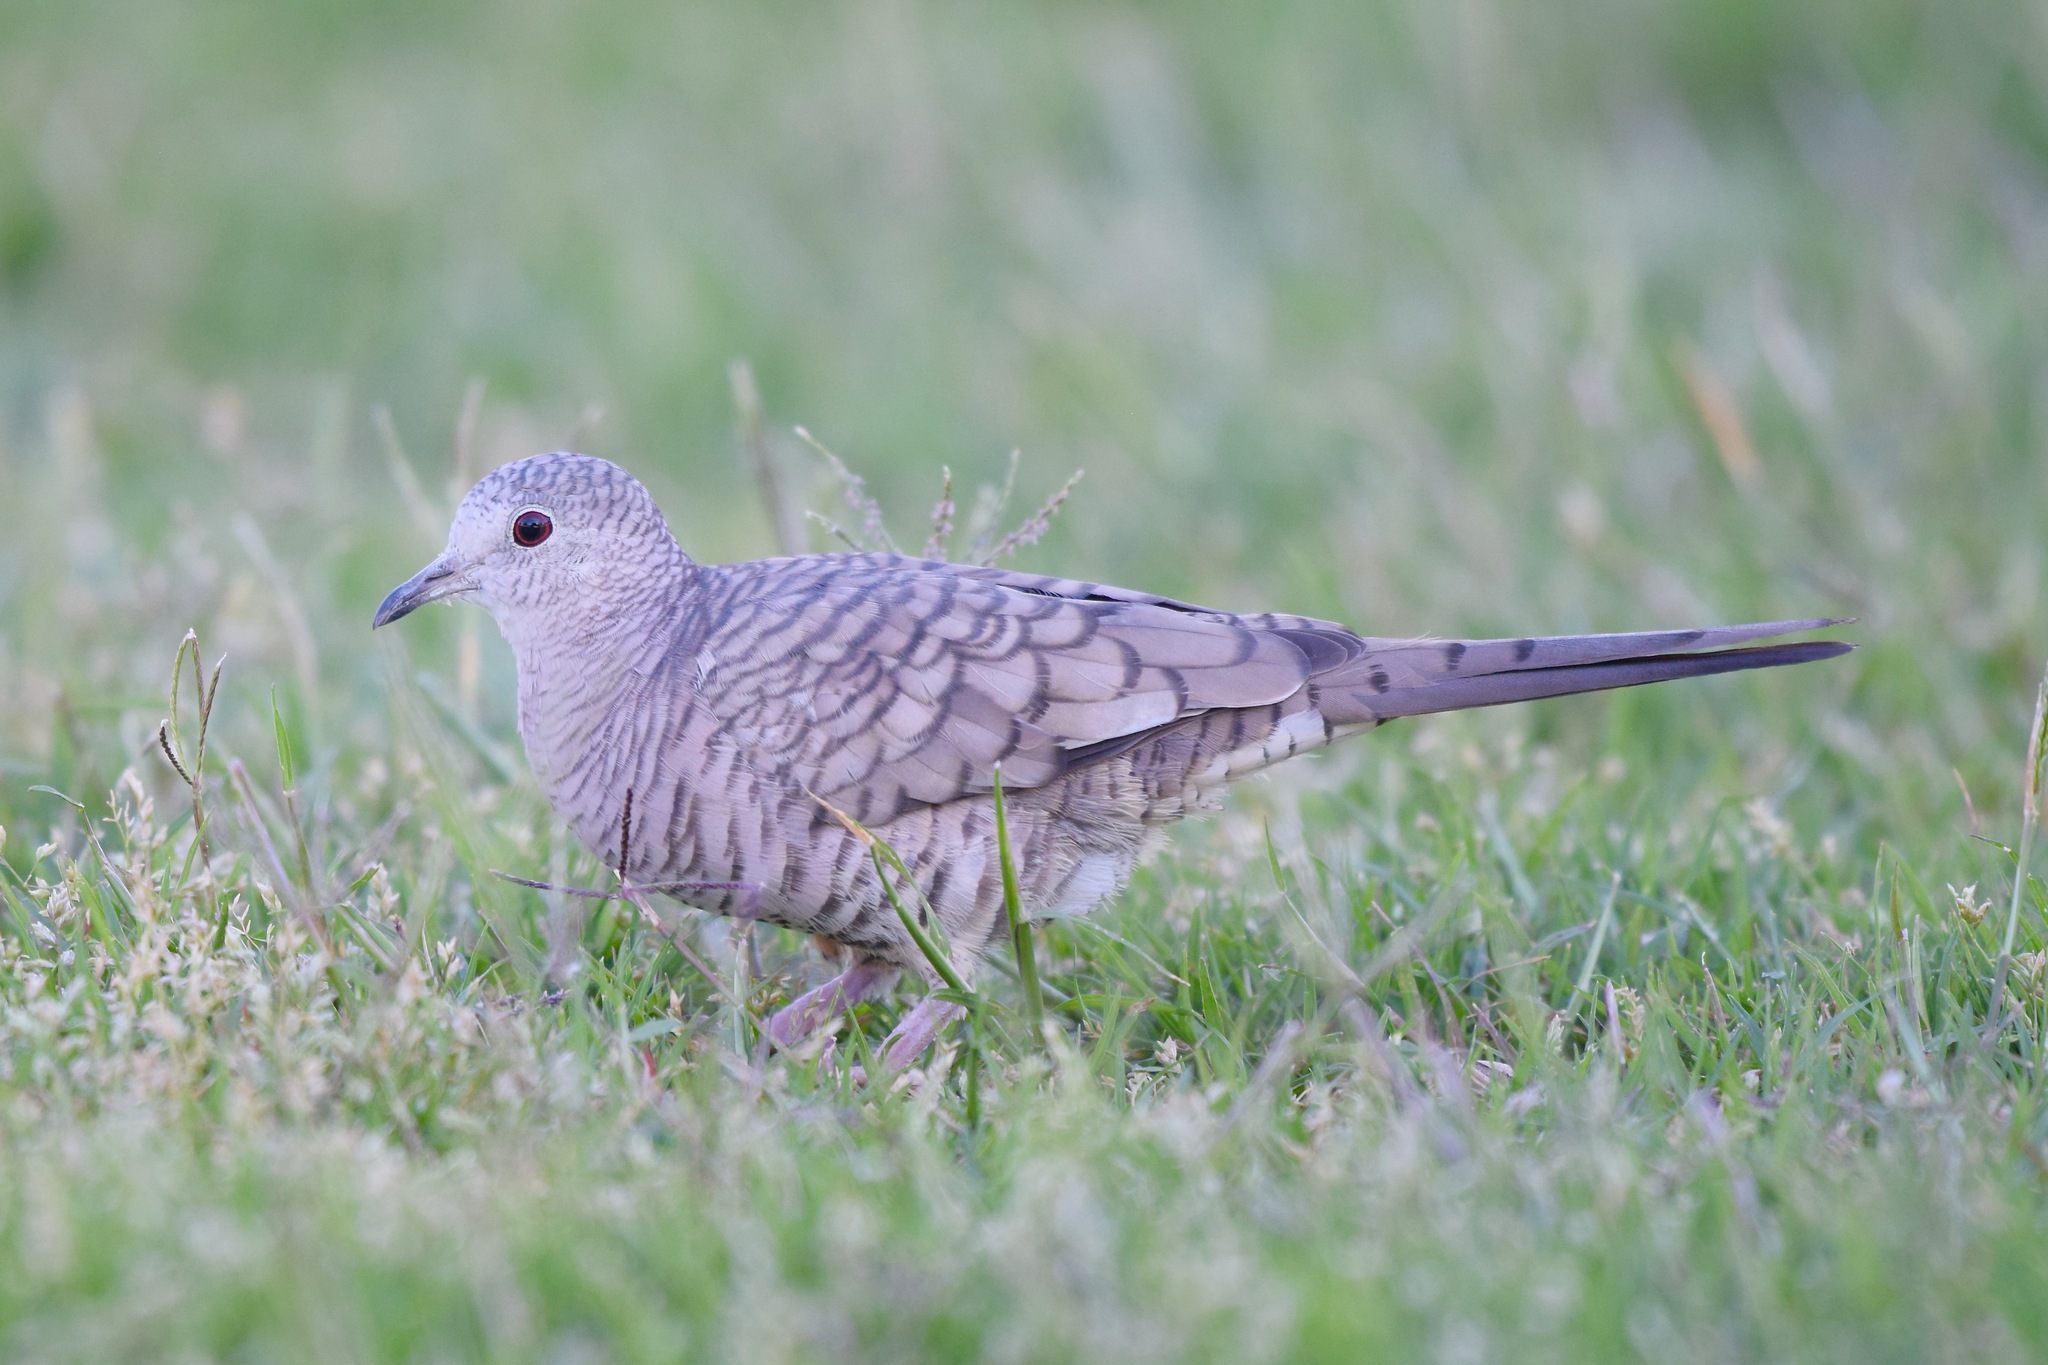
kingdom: Animalia
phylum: Chordata
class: Aves
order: Columbiformes
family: Columbidae
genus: Columbina
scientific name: Columbina inca
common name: Inca dove
